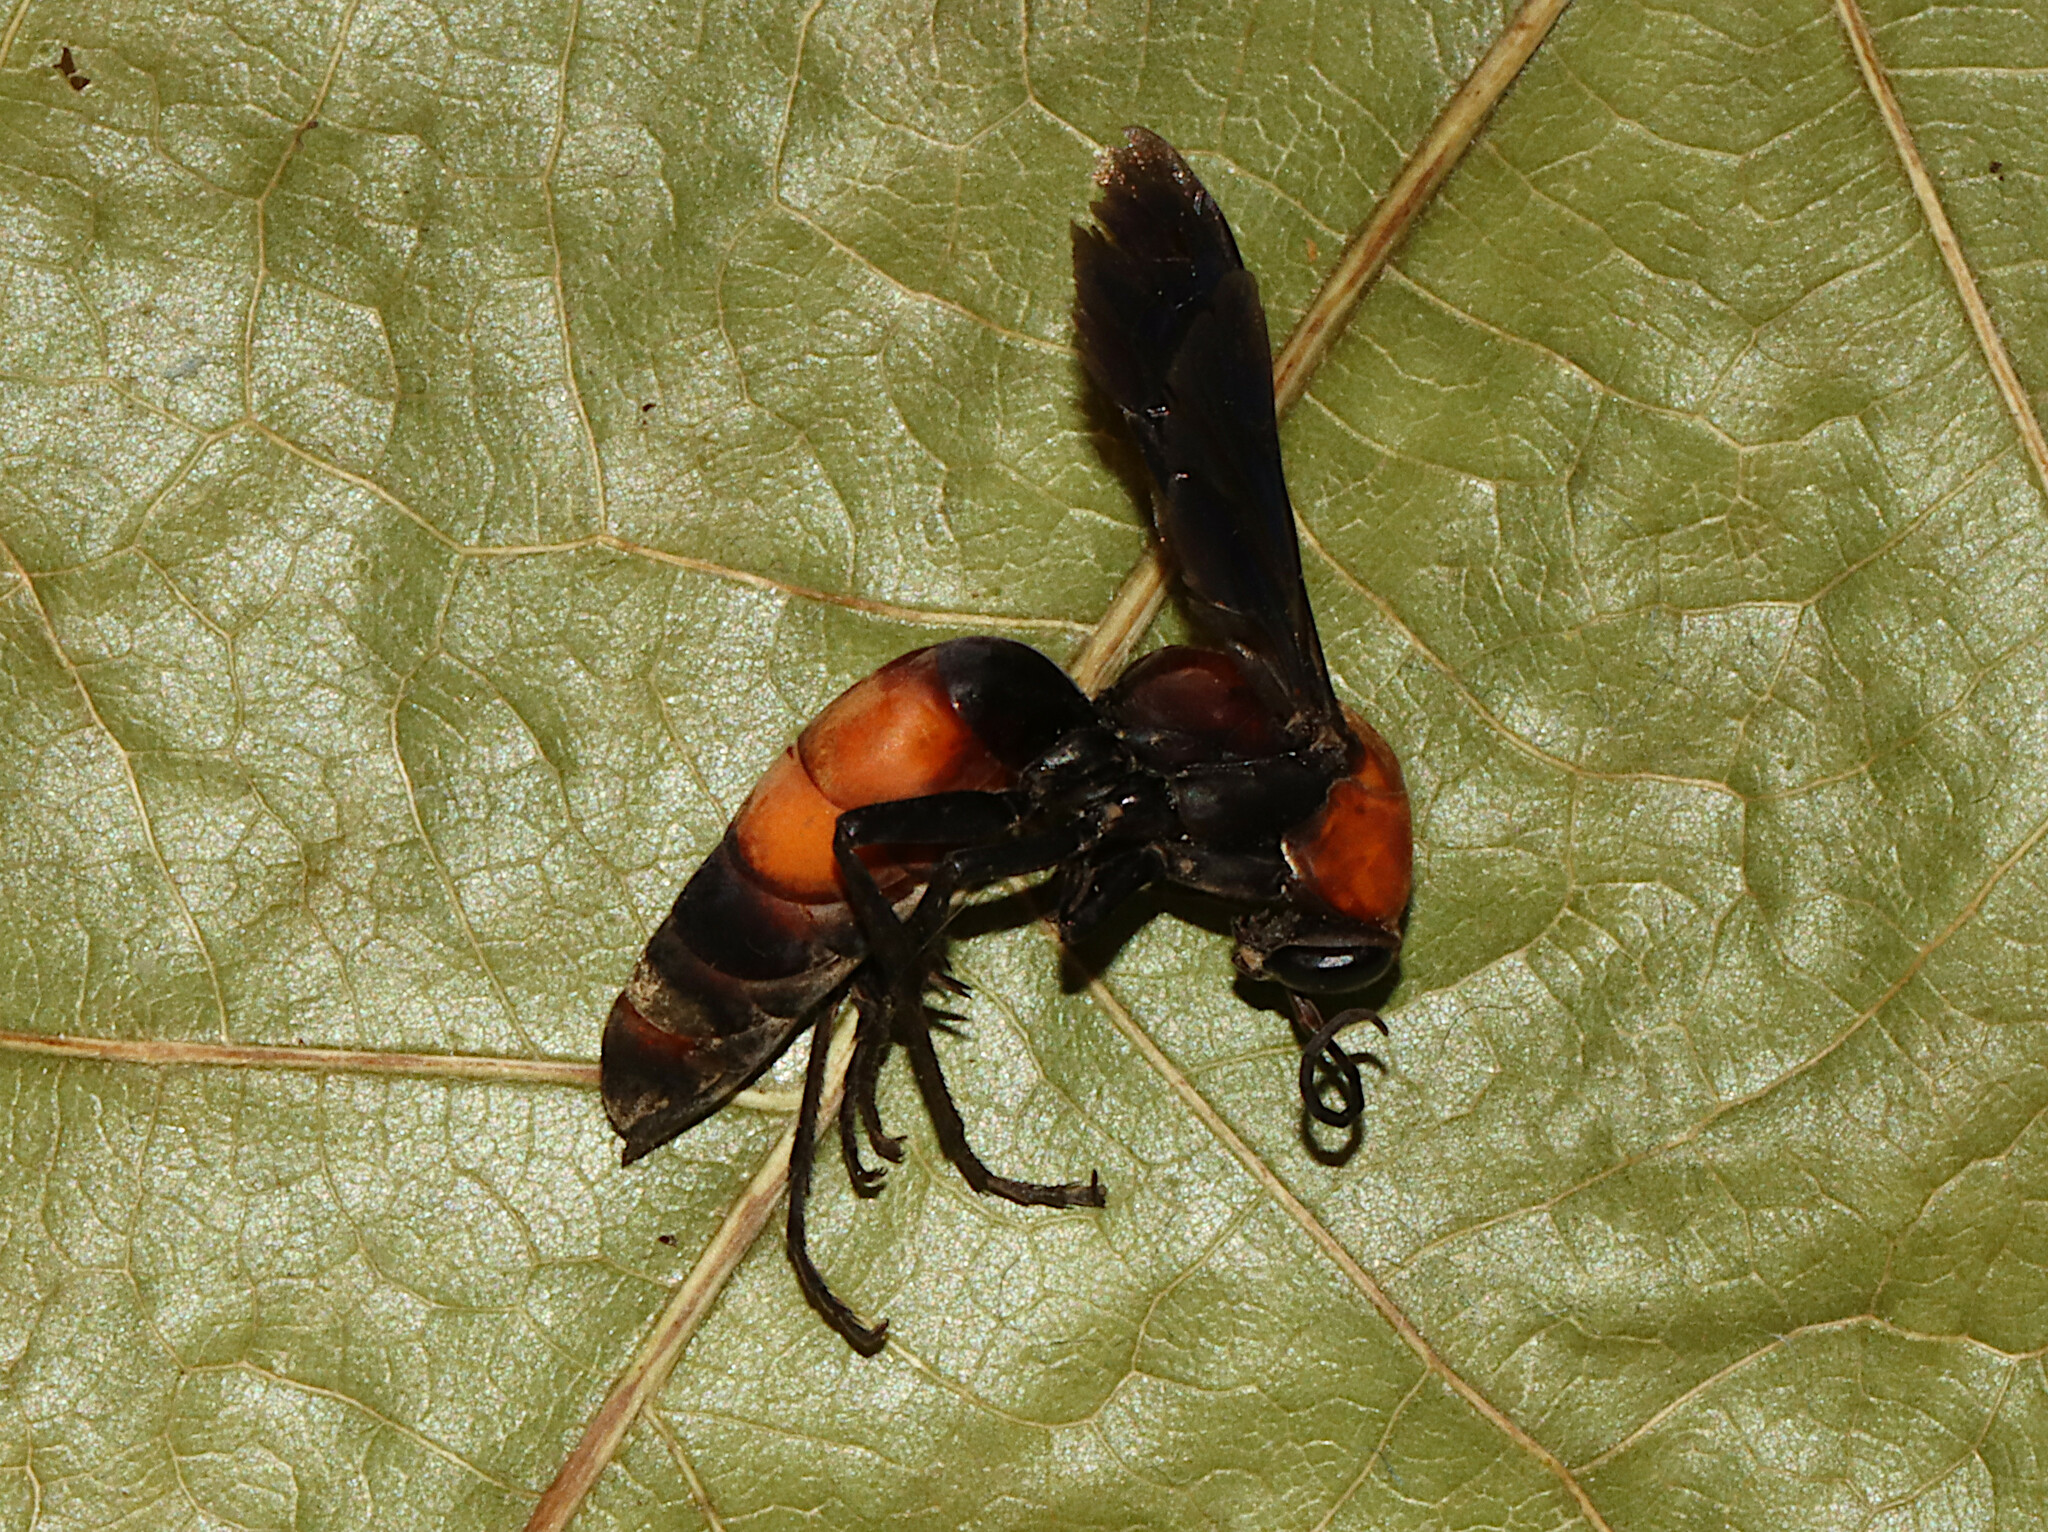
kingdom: Animalia
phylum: Arthropoda
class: Insecta
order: Hymenoptera
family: Pompilidae
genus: Psorthaspis
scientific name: Psorthaspis sanguinea
